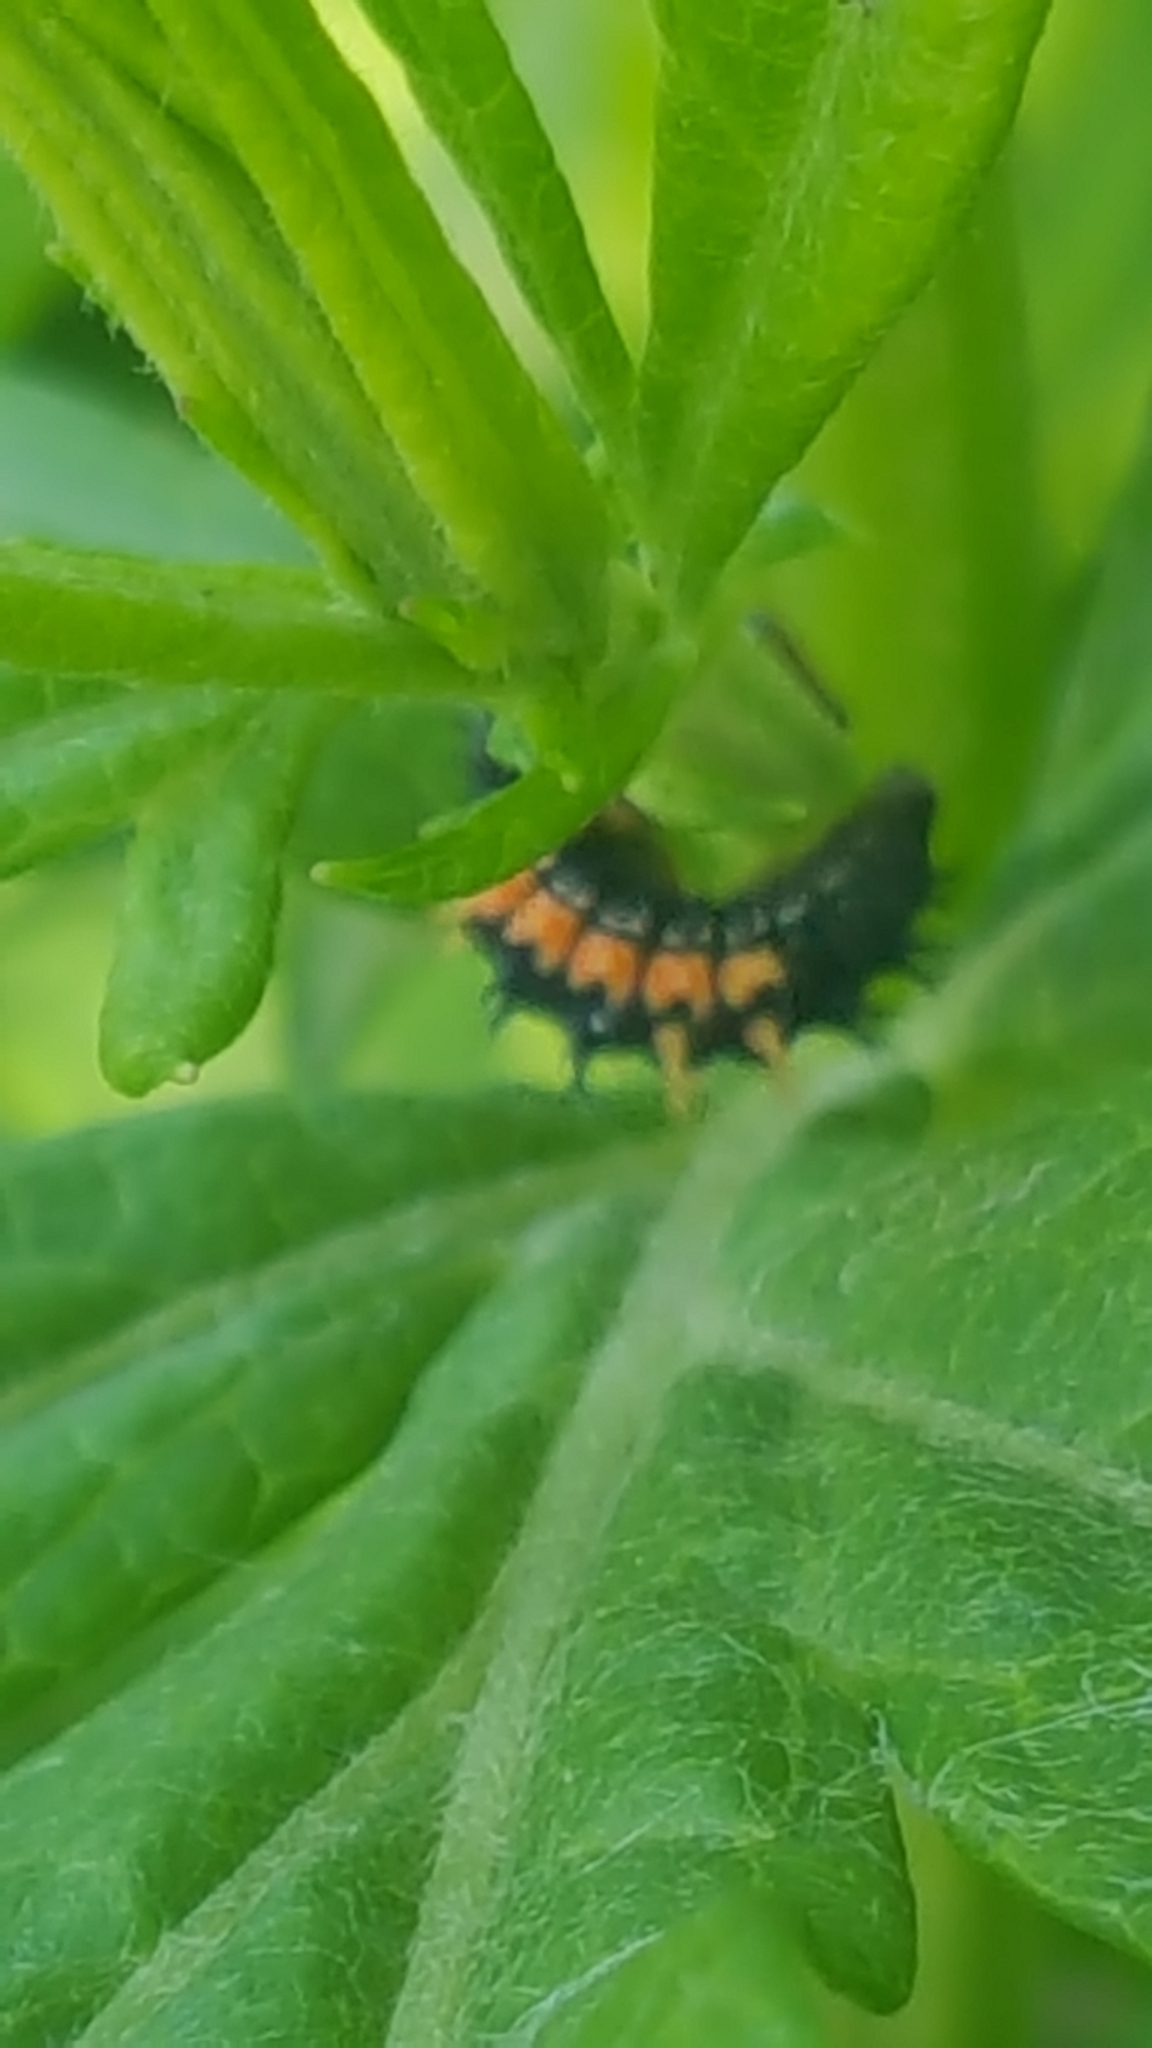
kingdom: Animalia
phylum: Arthropoda
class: Insecta
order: Coleoptera
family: Coccinellidae
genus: Harmonia
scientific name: Harmonia axyridis
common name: Harlequin ladybird
